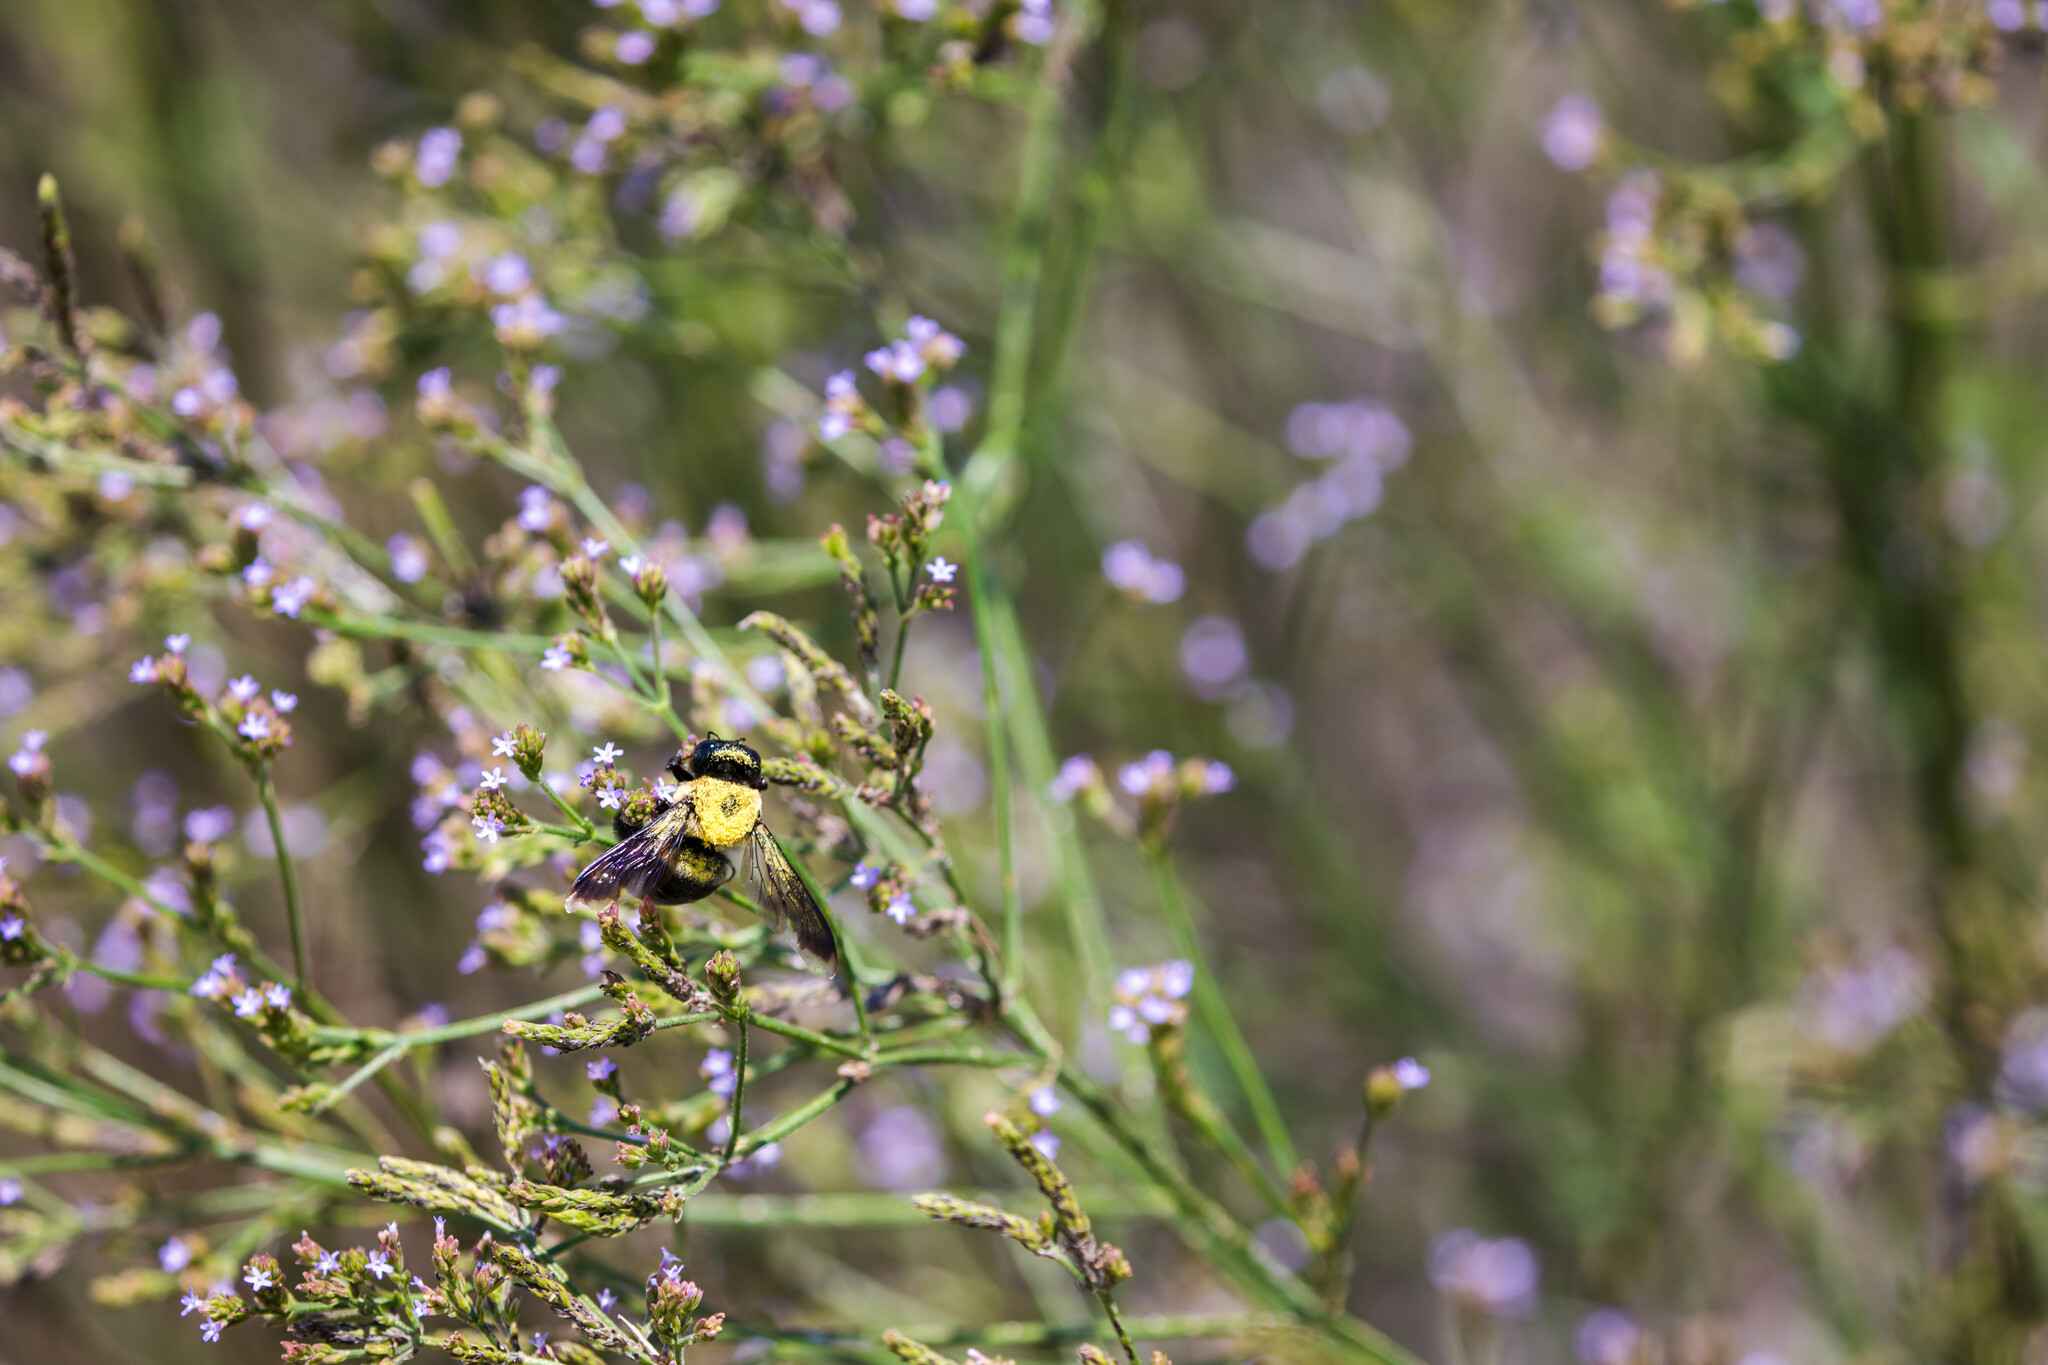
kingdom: Animalia
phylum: Arthropoda
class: Insecta
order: Hymenoptera
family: Apidae
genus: Xylocopa
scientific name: Xylocopa virginica
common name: Carpenter bee
